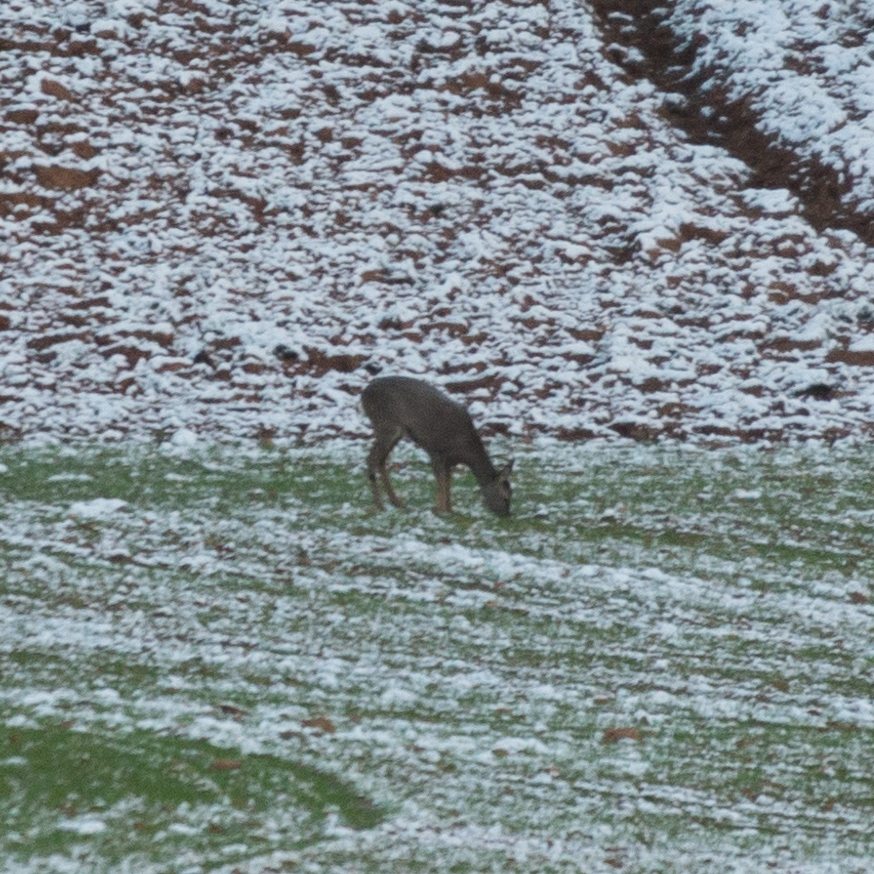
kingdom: Animalia
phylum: Chordata
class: Mammalia
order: Artiodactyla
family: Cervidae
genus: Capreolus
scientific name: Capreolus capreolus
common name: Western roe deer
